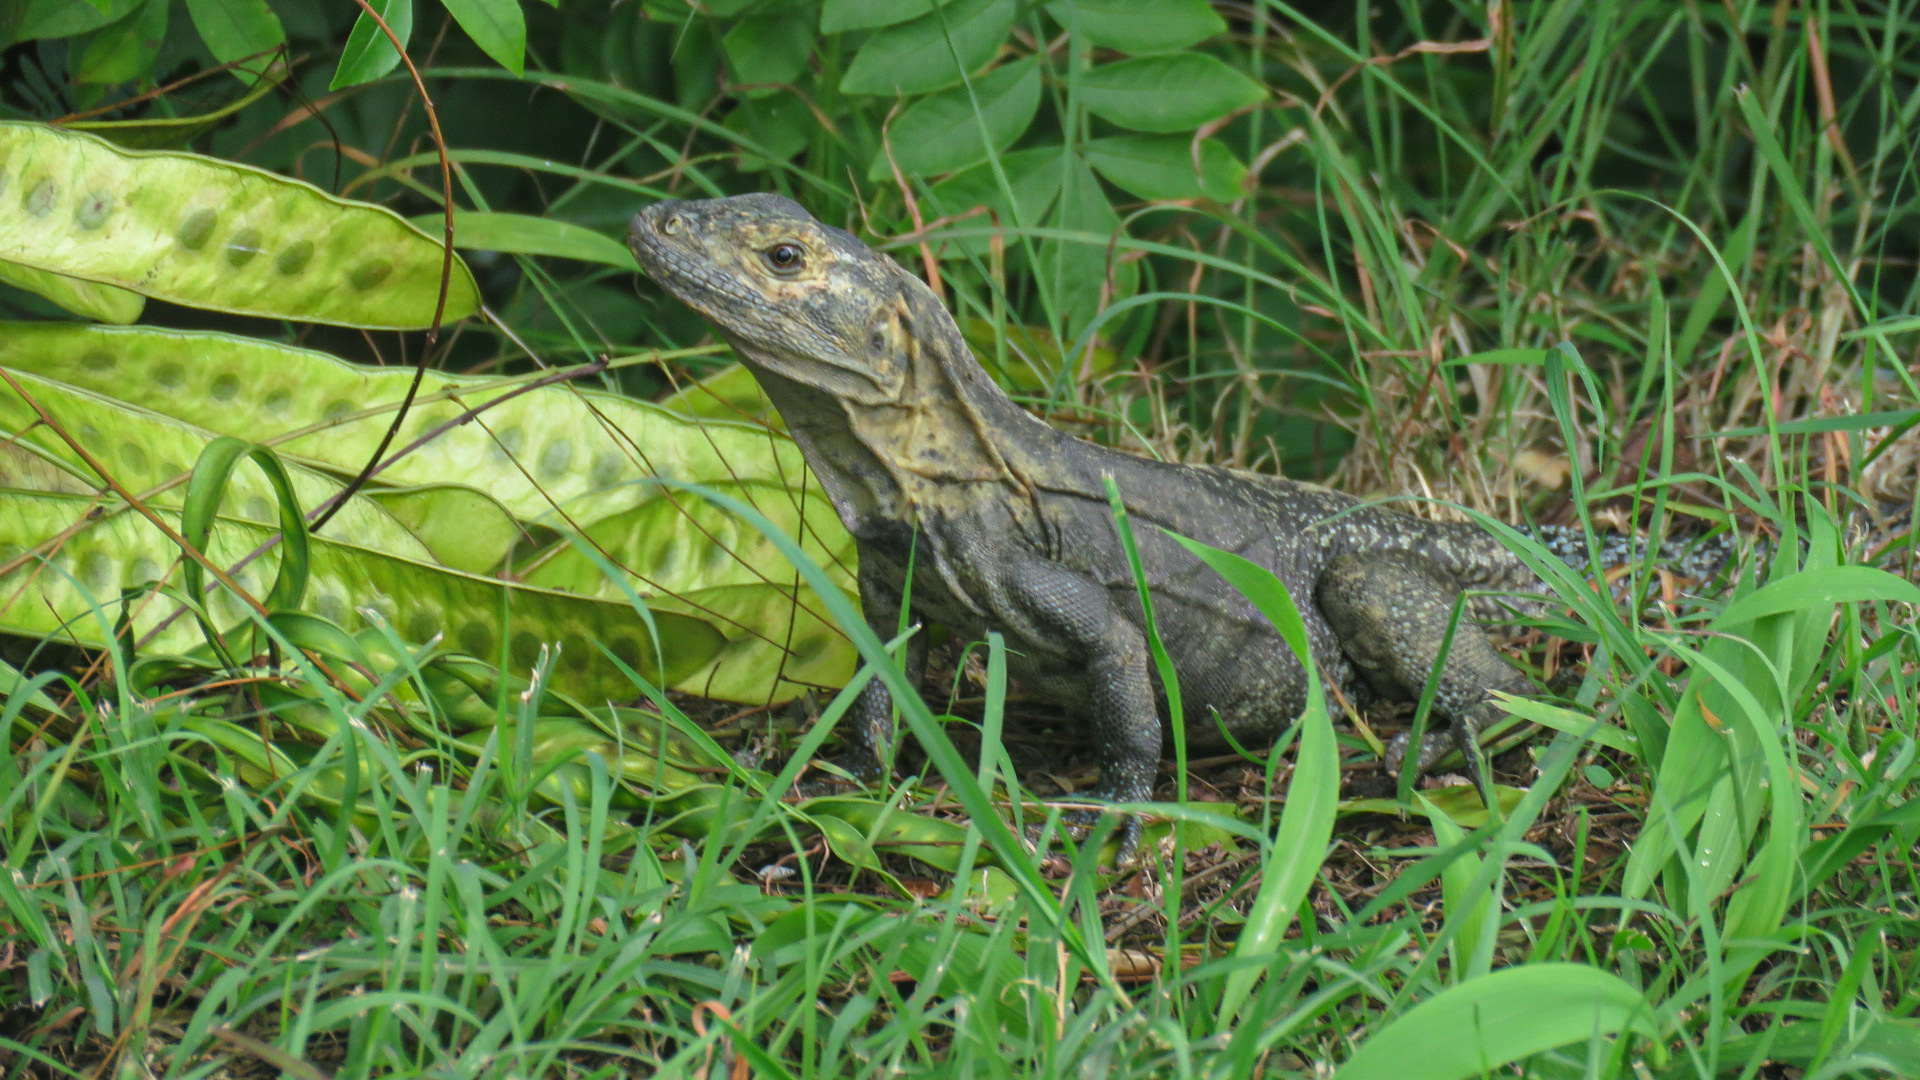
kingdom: Animalia
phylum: Chordata
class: Squamata
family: Iguanidae
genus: Ctenosaura
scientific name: Ctenosaura similis
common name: Black spiny-tailed iguana
